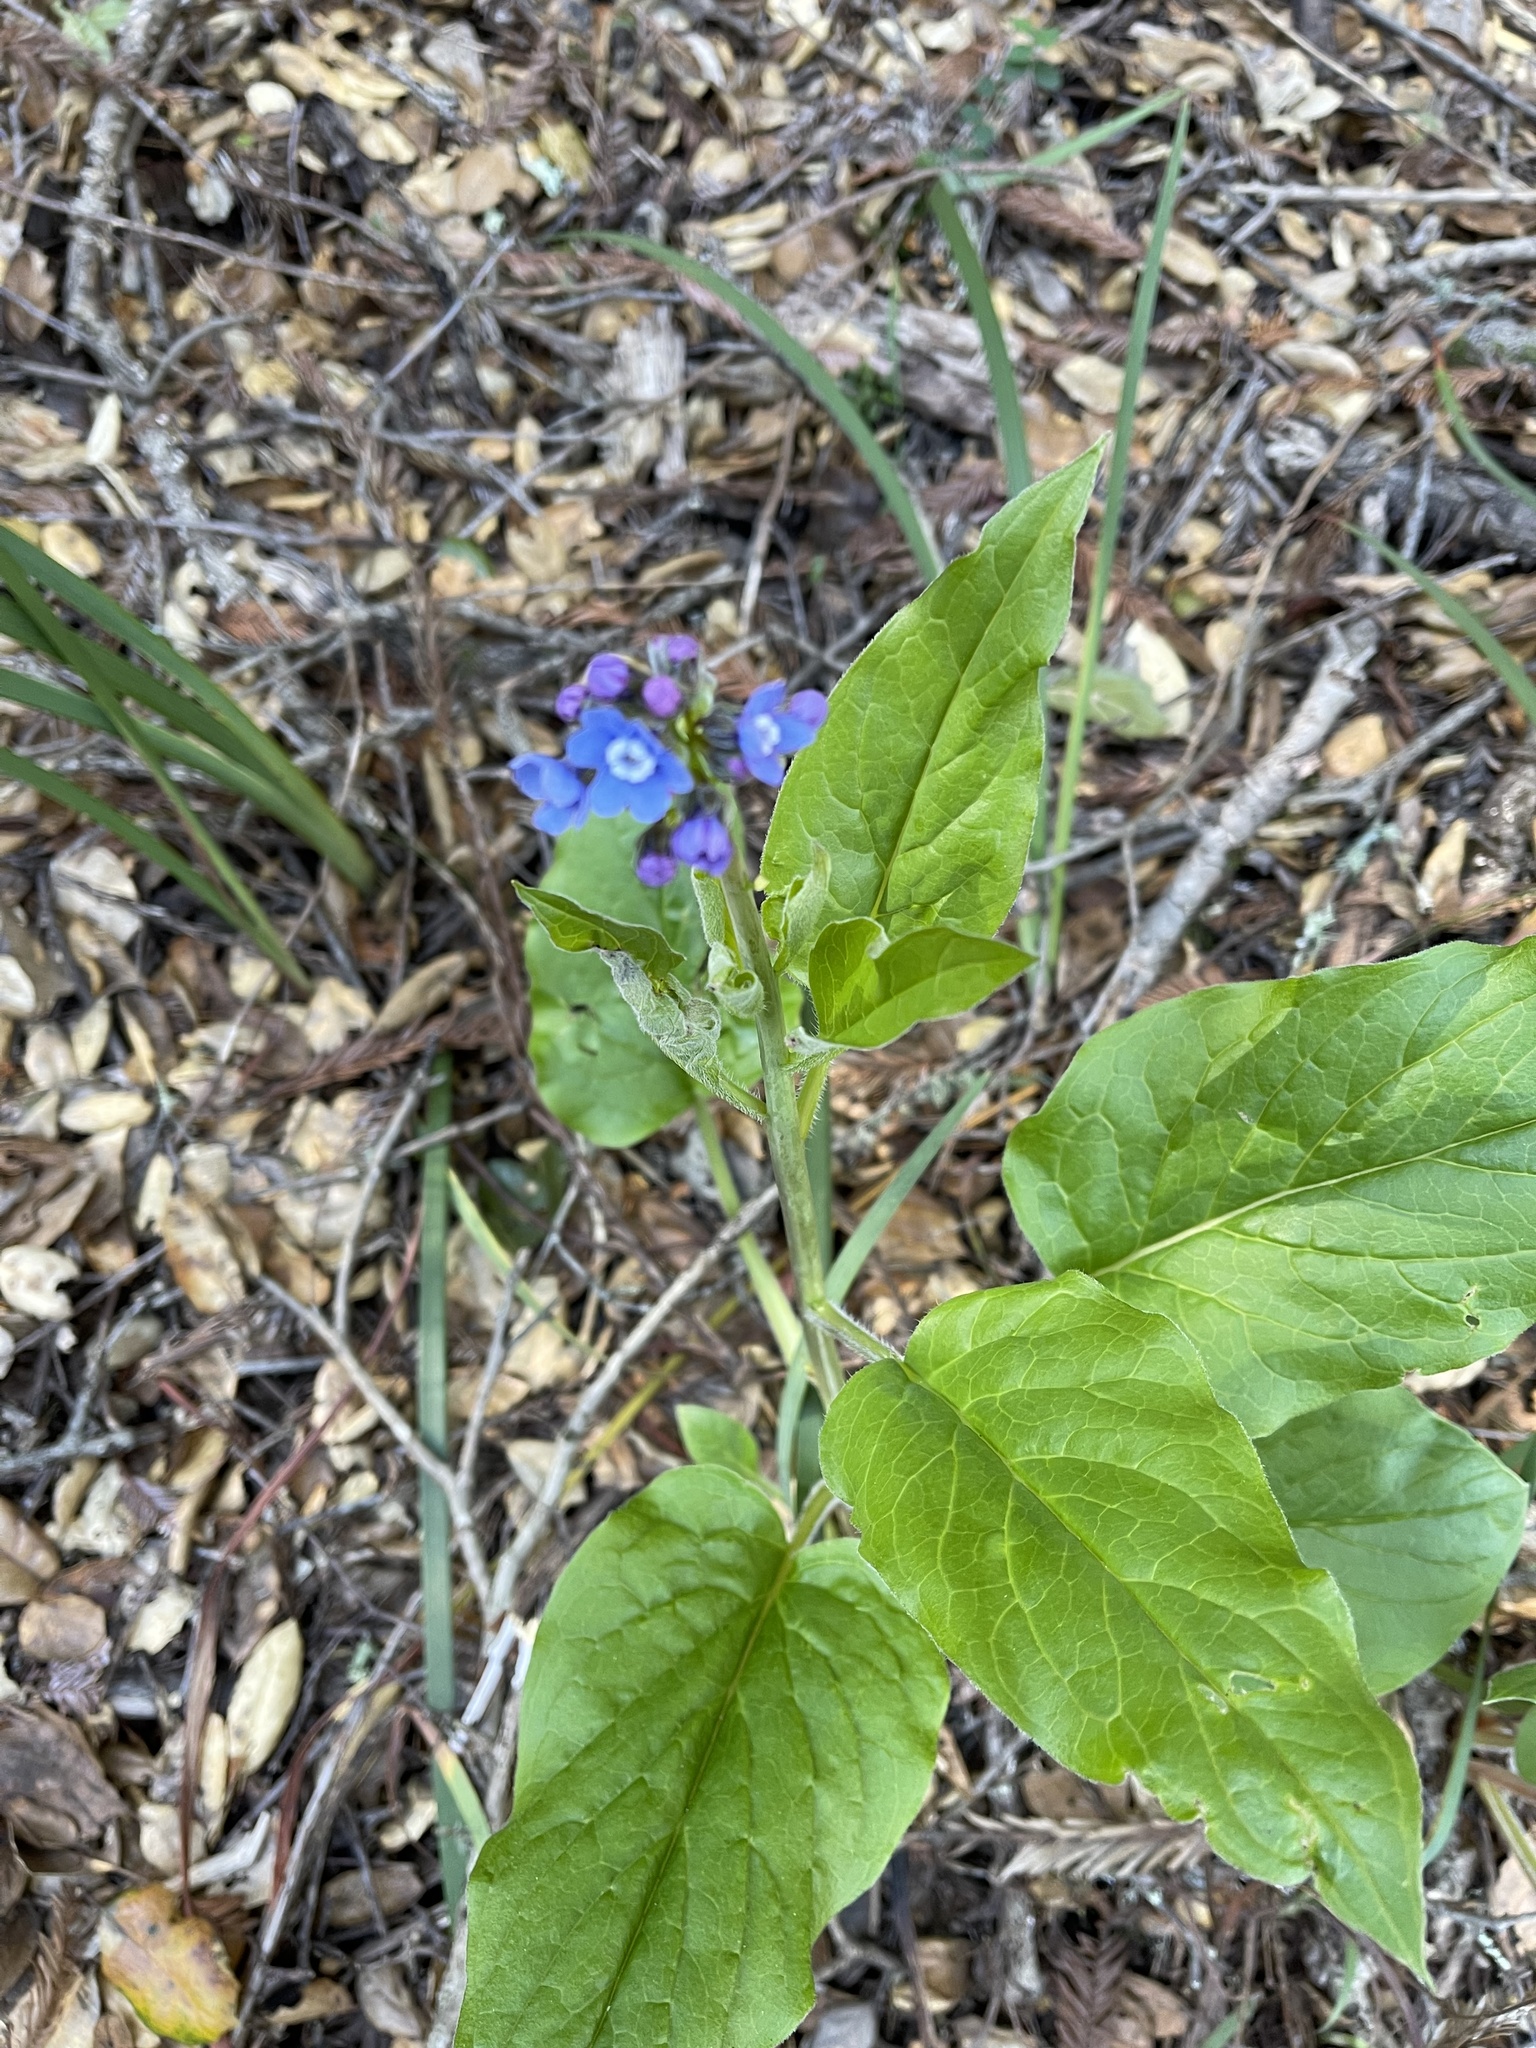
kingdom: Plantae
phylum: Tracheophyta
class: Magnoliopsida
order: Boraginales
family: Boraginaceae
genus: Adelinia
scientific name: Adelinia grande
